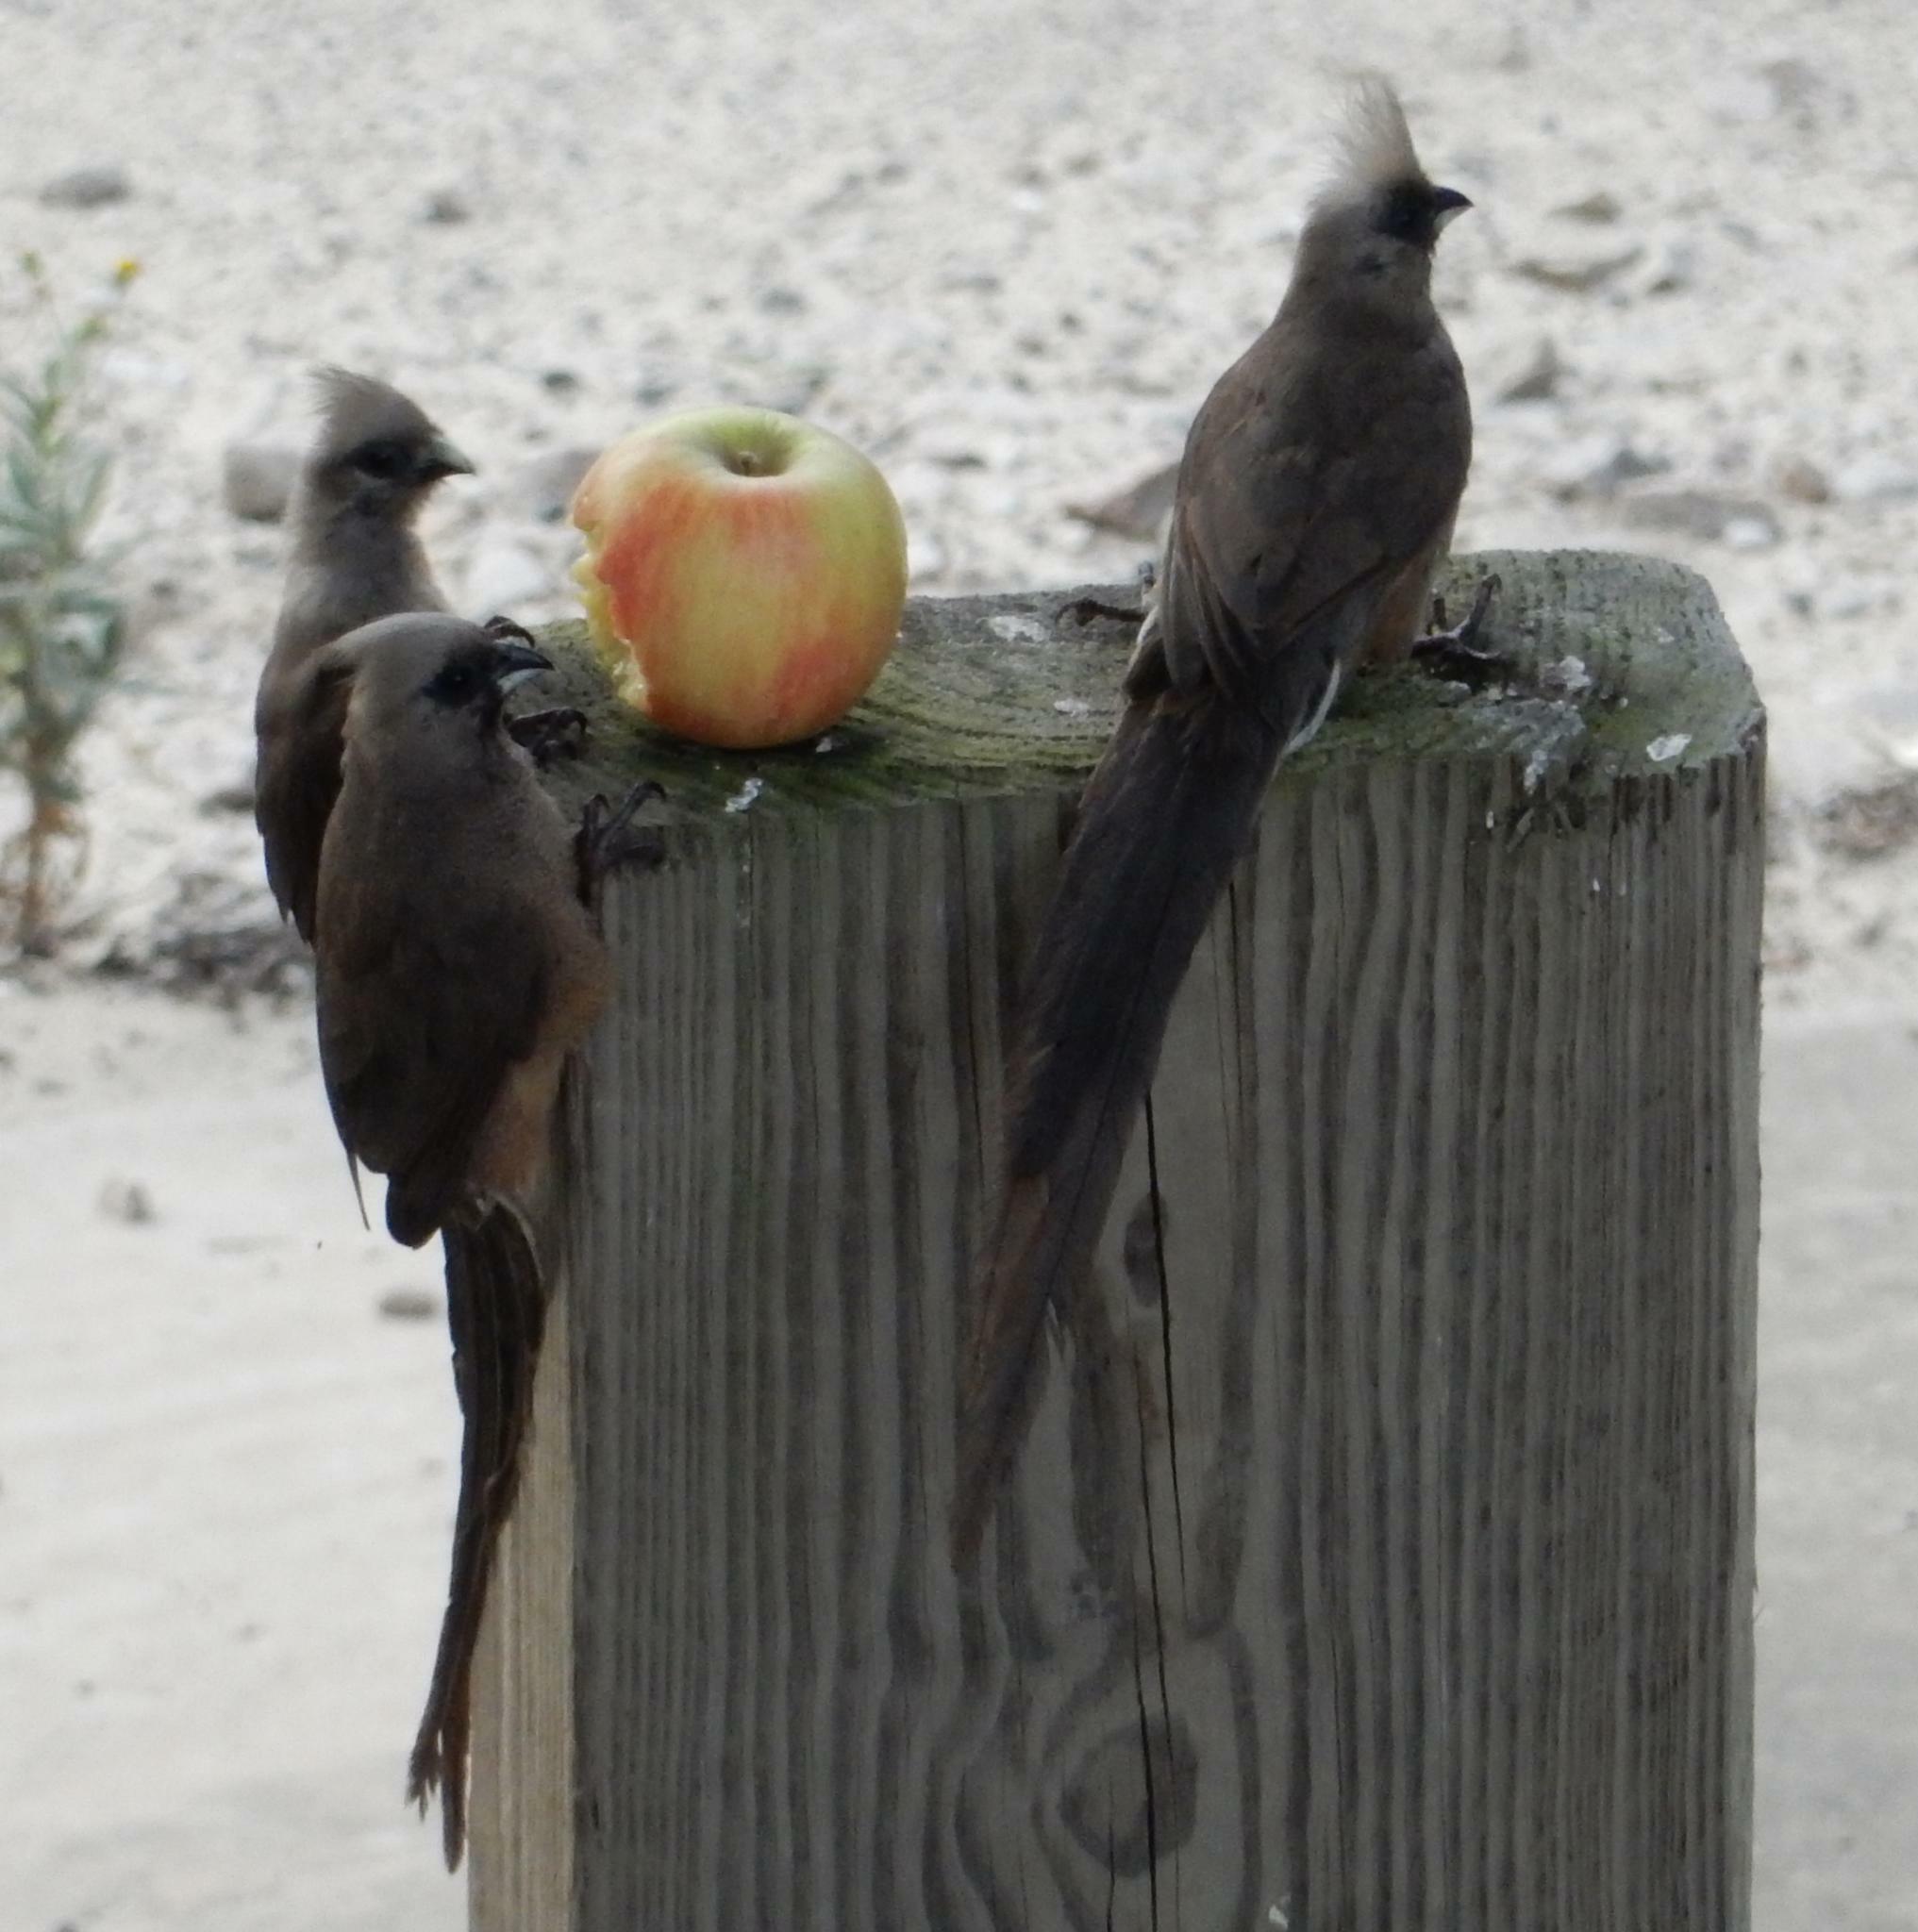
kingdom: Animalia
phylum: Chordata
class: Aves
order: Coliiformes
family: Coliidae
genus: Colius
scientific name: Colius striatus
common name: Speckled mousebird
